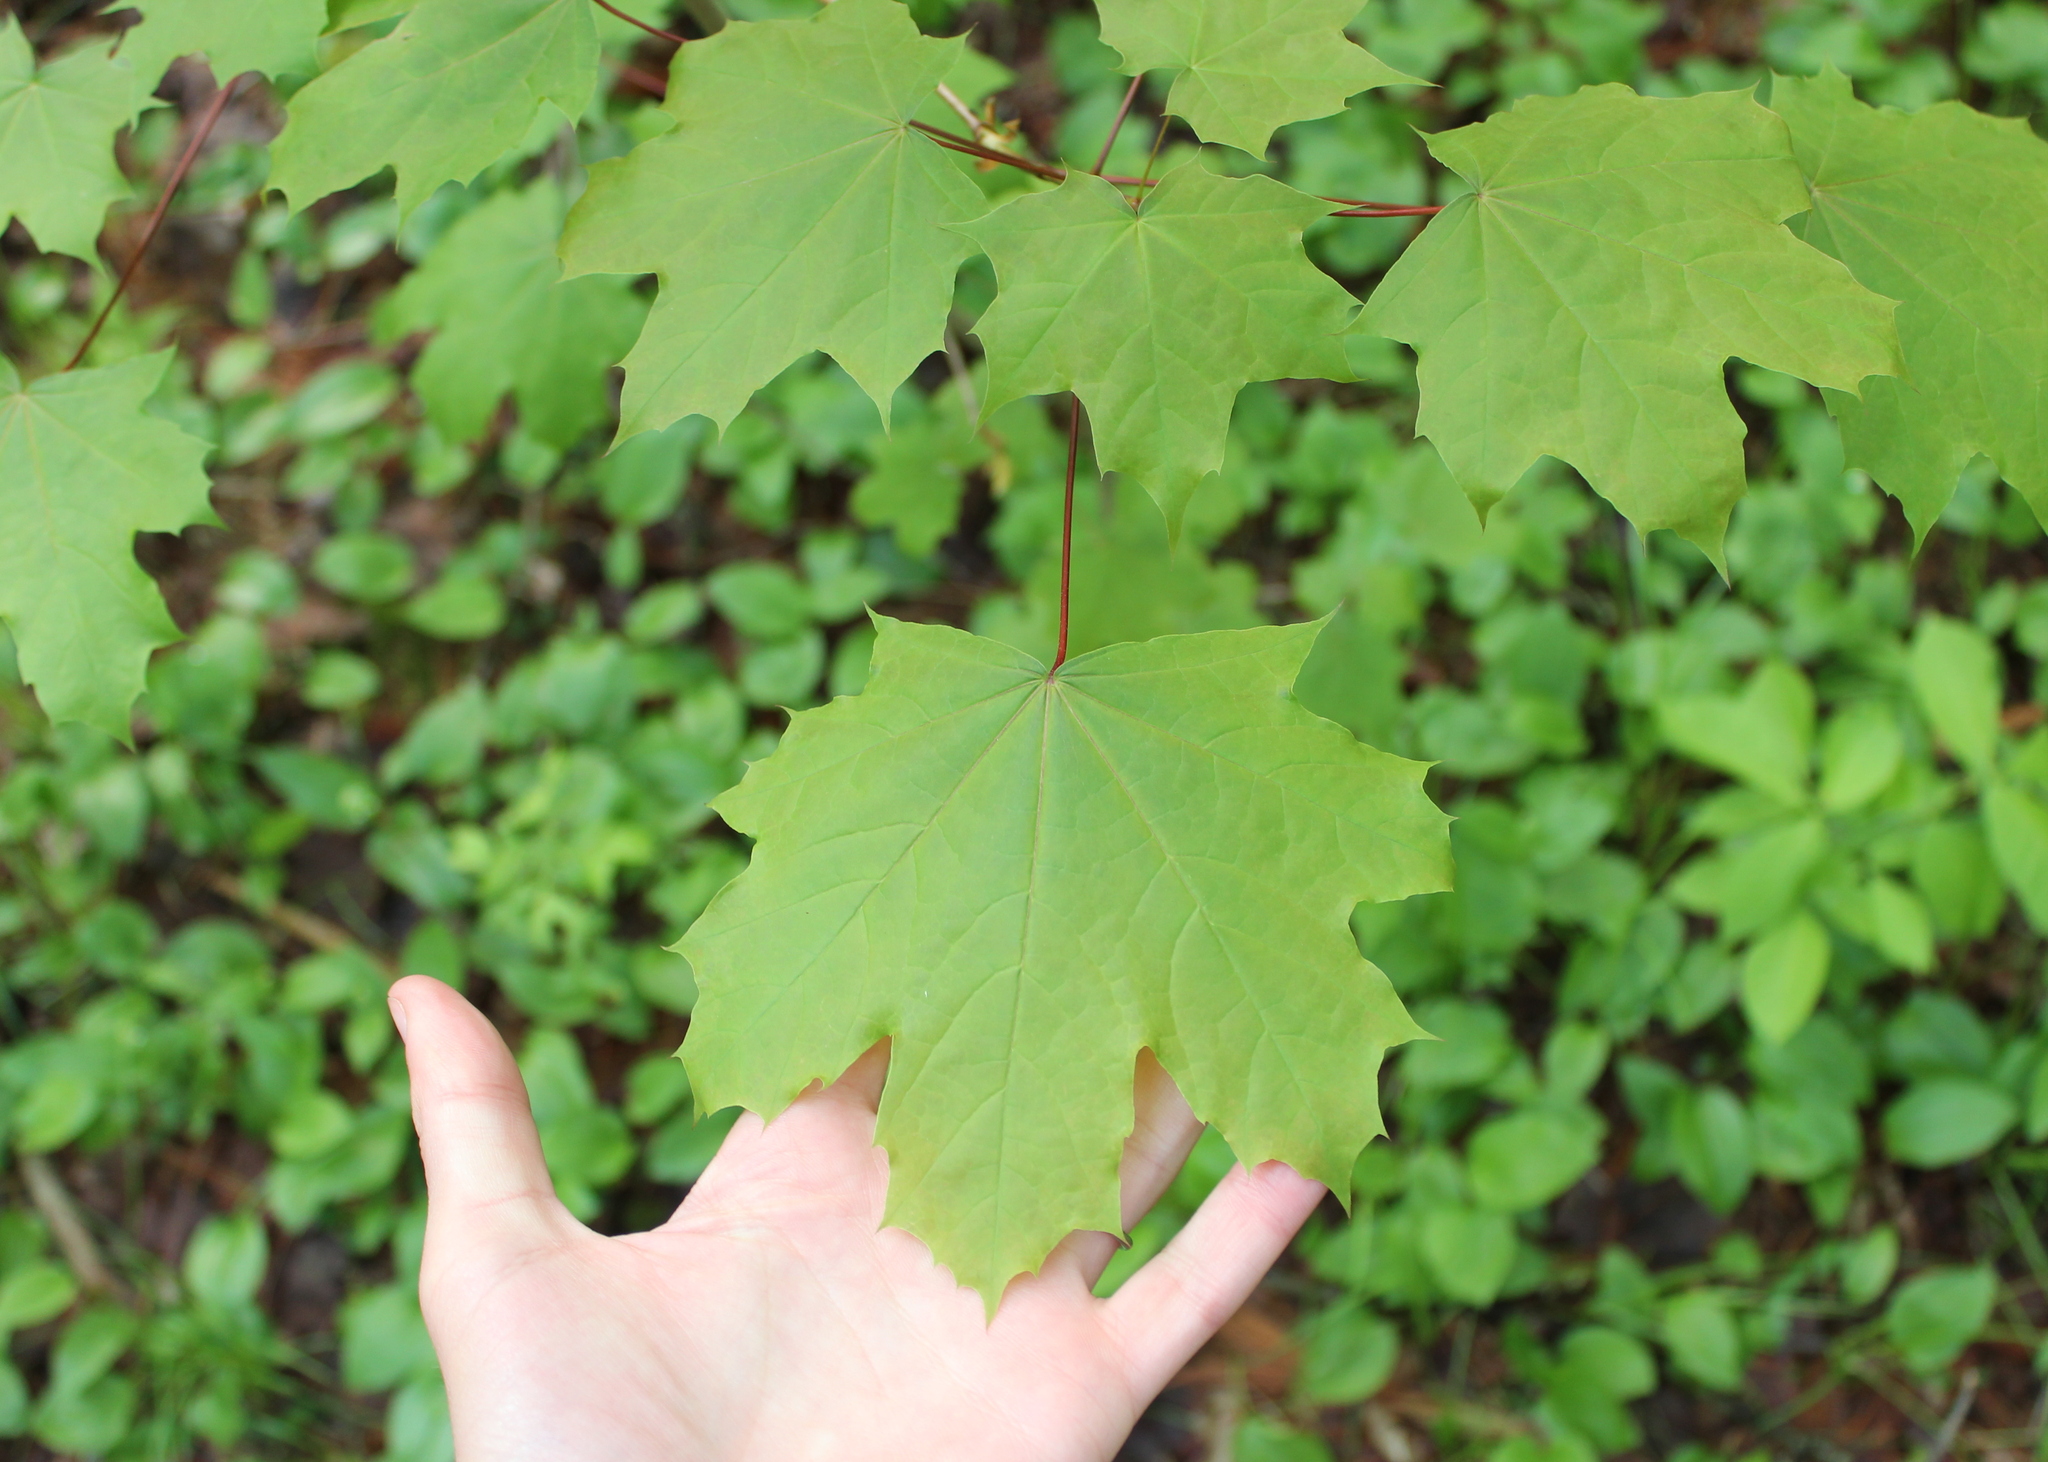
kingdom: Plantae
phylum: Tracheophyta
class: Magnoliopsida
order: Sapindales
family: Sapindaceae
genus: Acer
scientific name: Acer platanoides
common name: Norway maple
